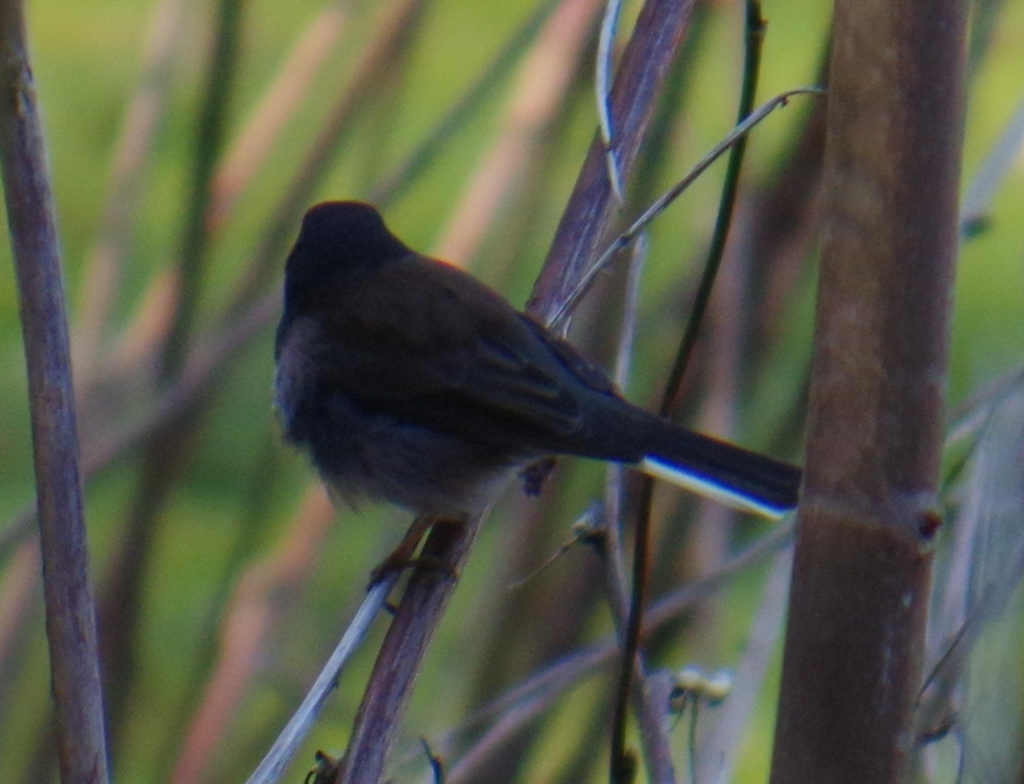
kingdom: Animalia
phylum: Chordata
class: Aves
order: Passeriformes
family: Passerellidae
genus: Junco
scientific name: Junco hyemalis
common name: Dark-eyed junco
